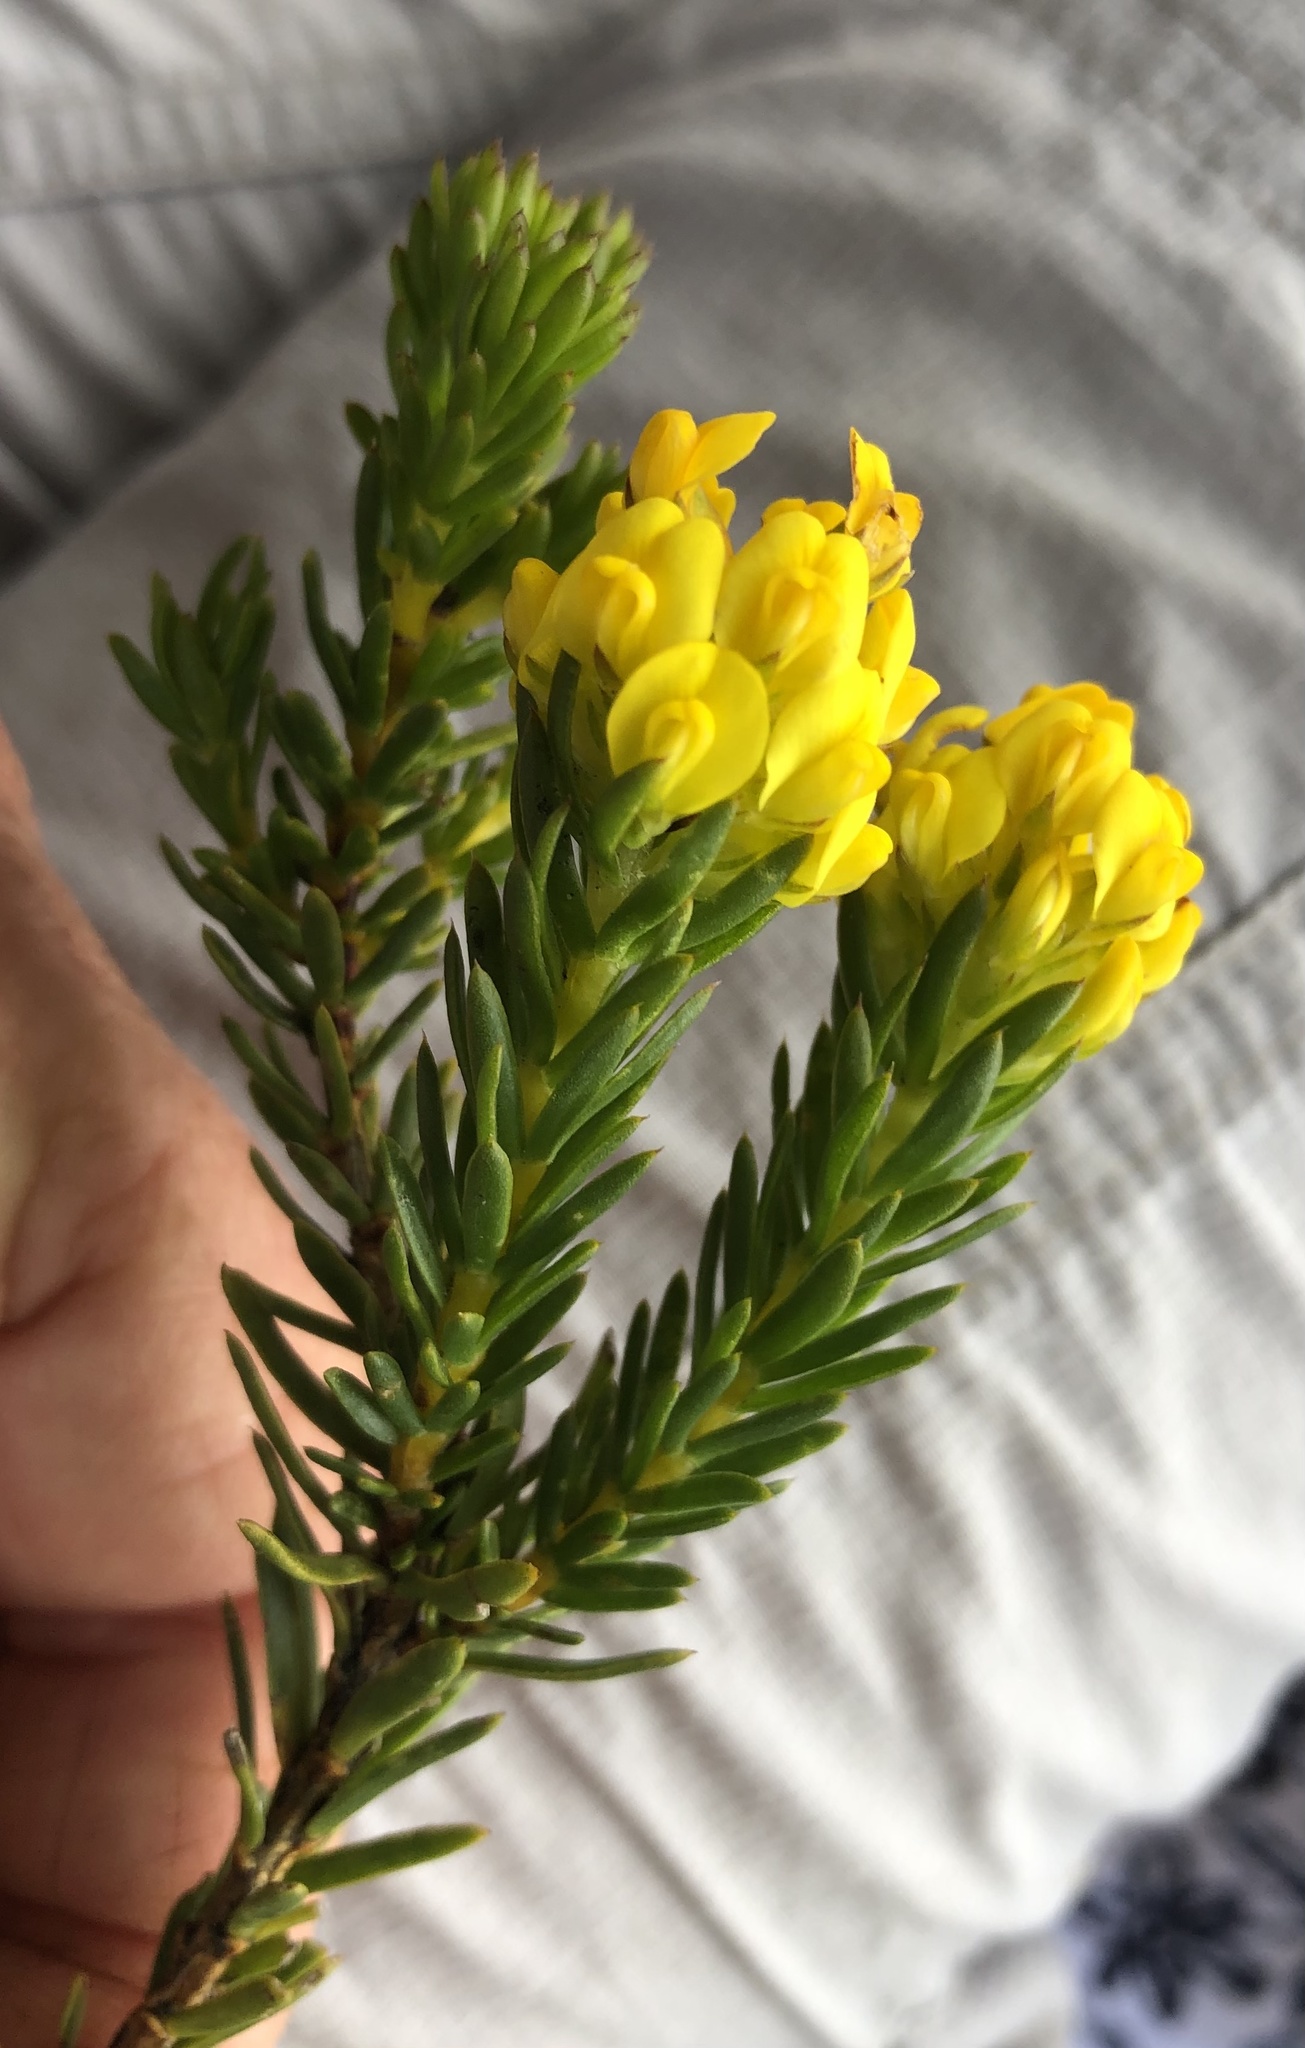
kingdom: Plantae
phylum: Tracheophyta
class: Magnoliopsida
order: Fabales
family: Fabaceae
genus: Aspalathus
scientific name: Aspalathus callosa
